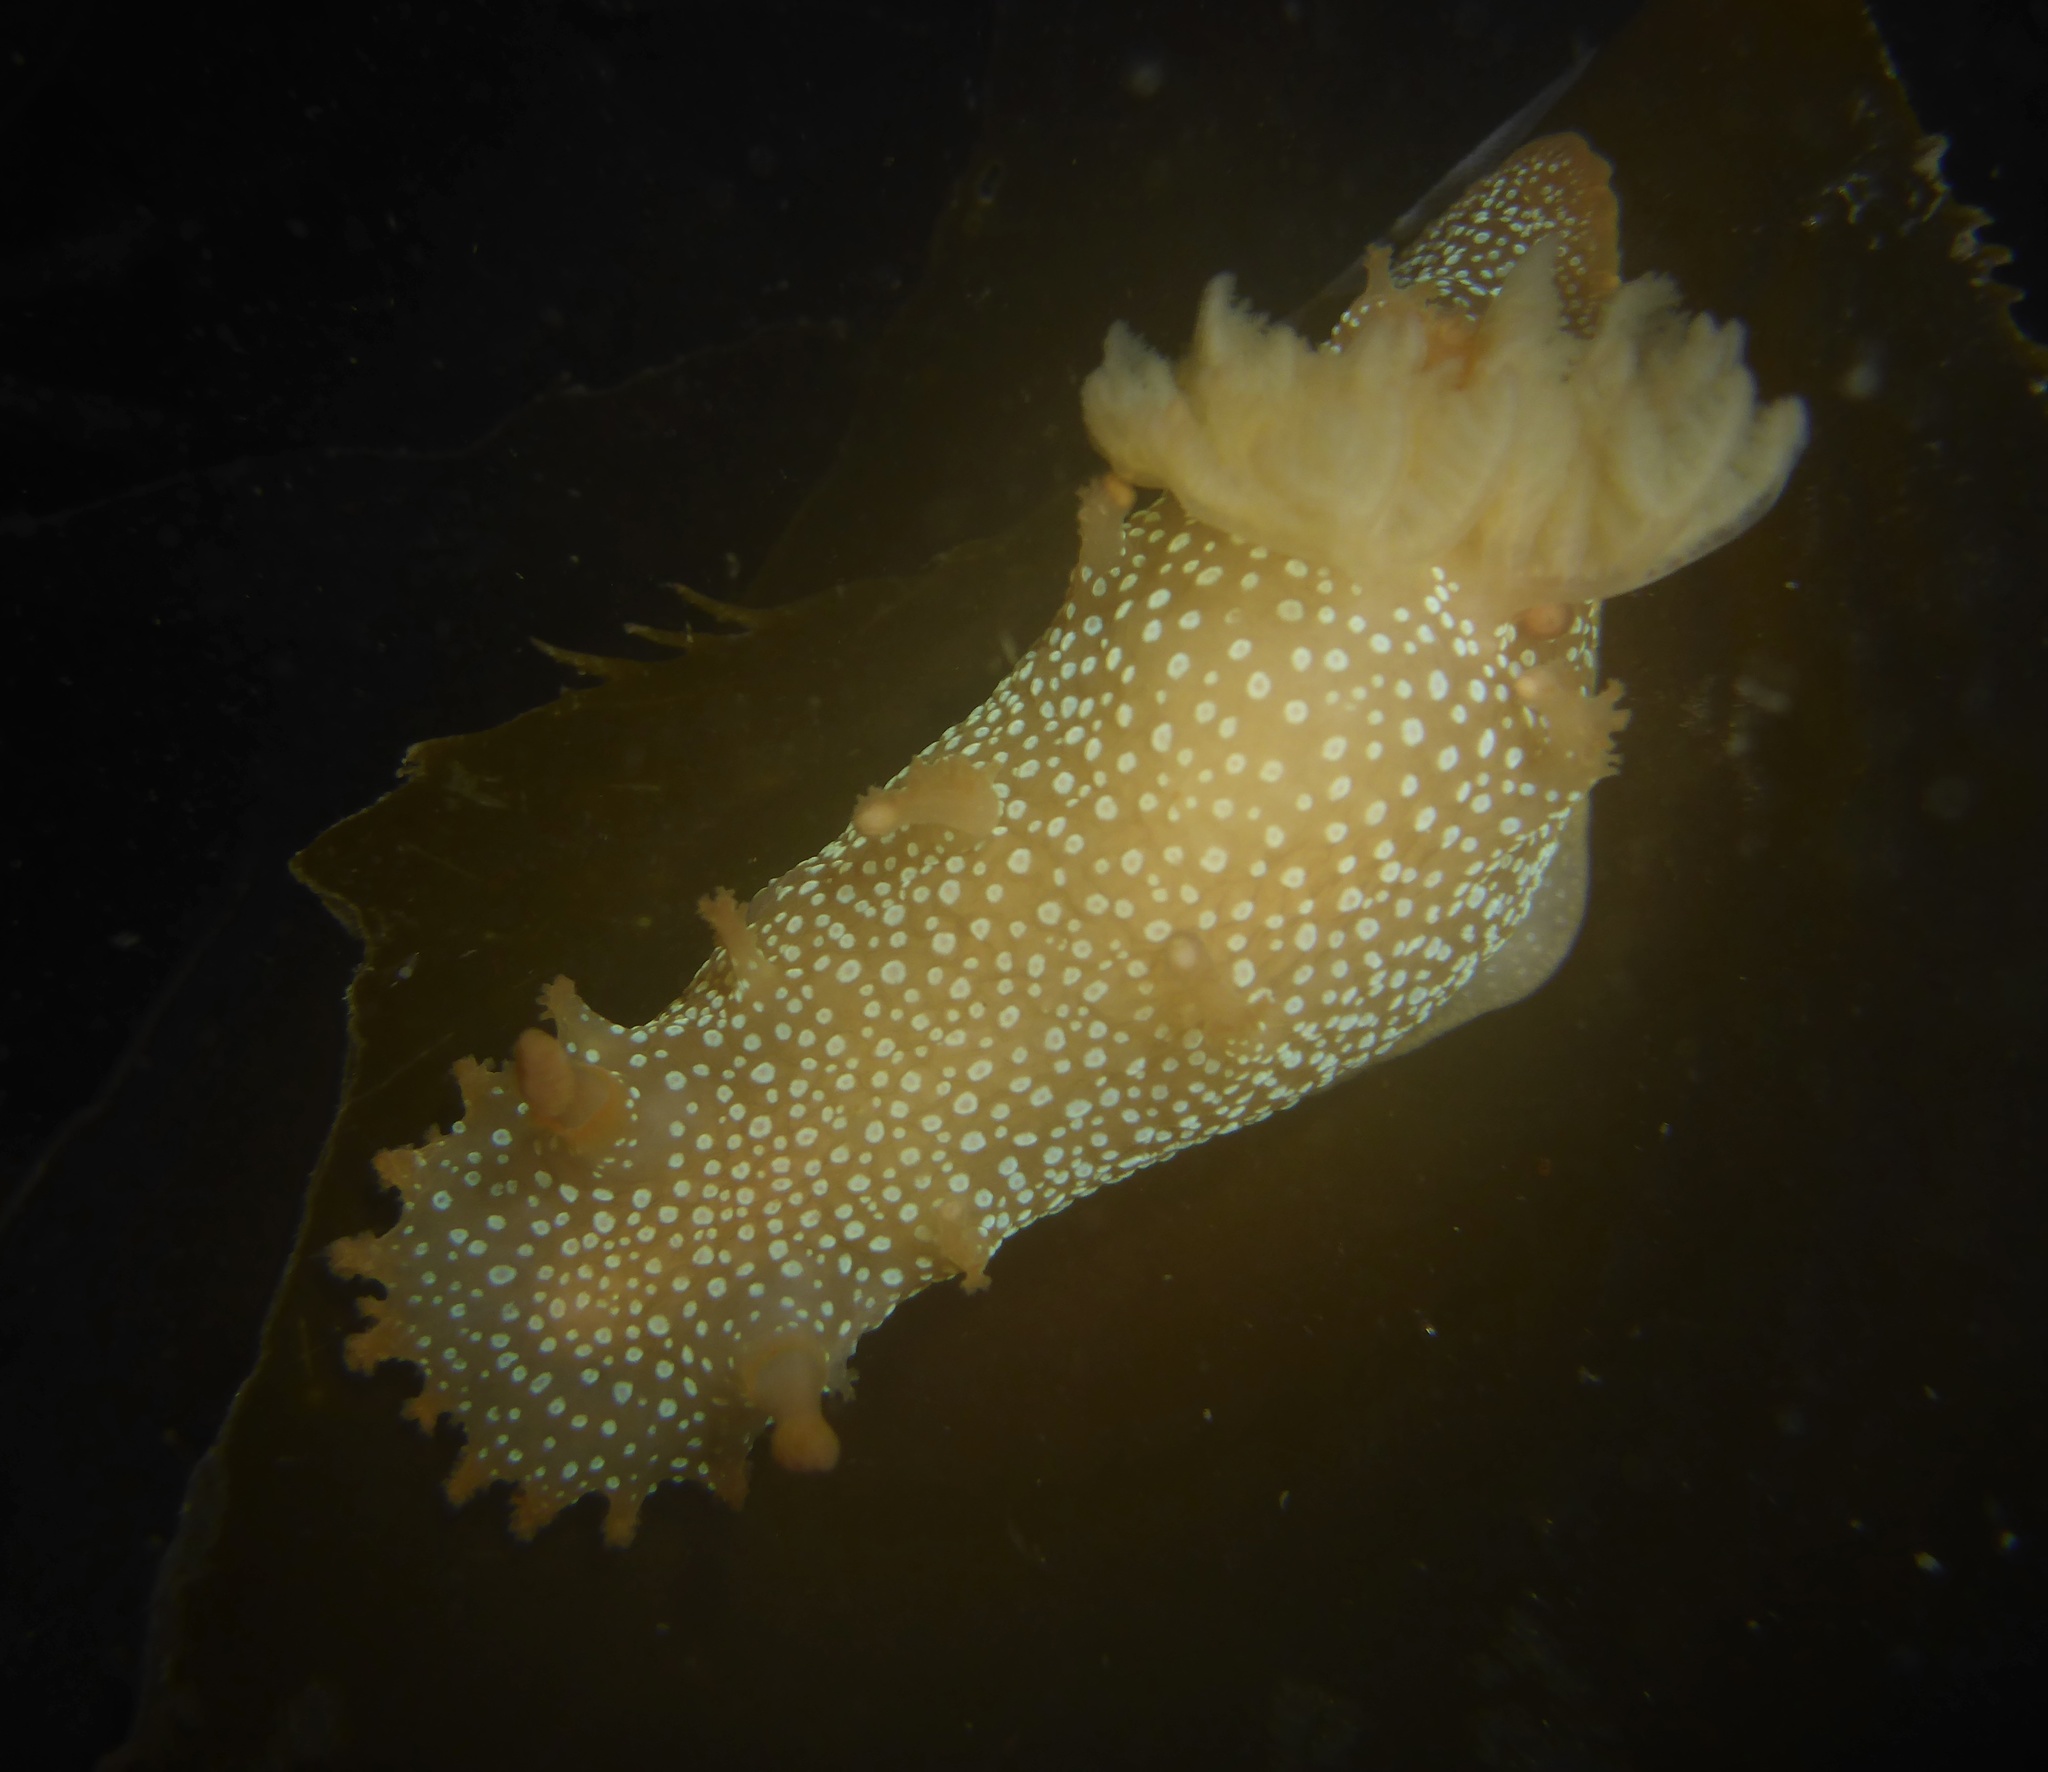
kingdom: Animalia
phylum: Mollusca
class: Gastropoda
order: Nudibranchia
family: Polyceridae
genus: Triopha
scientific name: Triopha maculata
